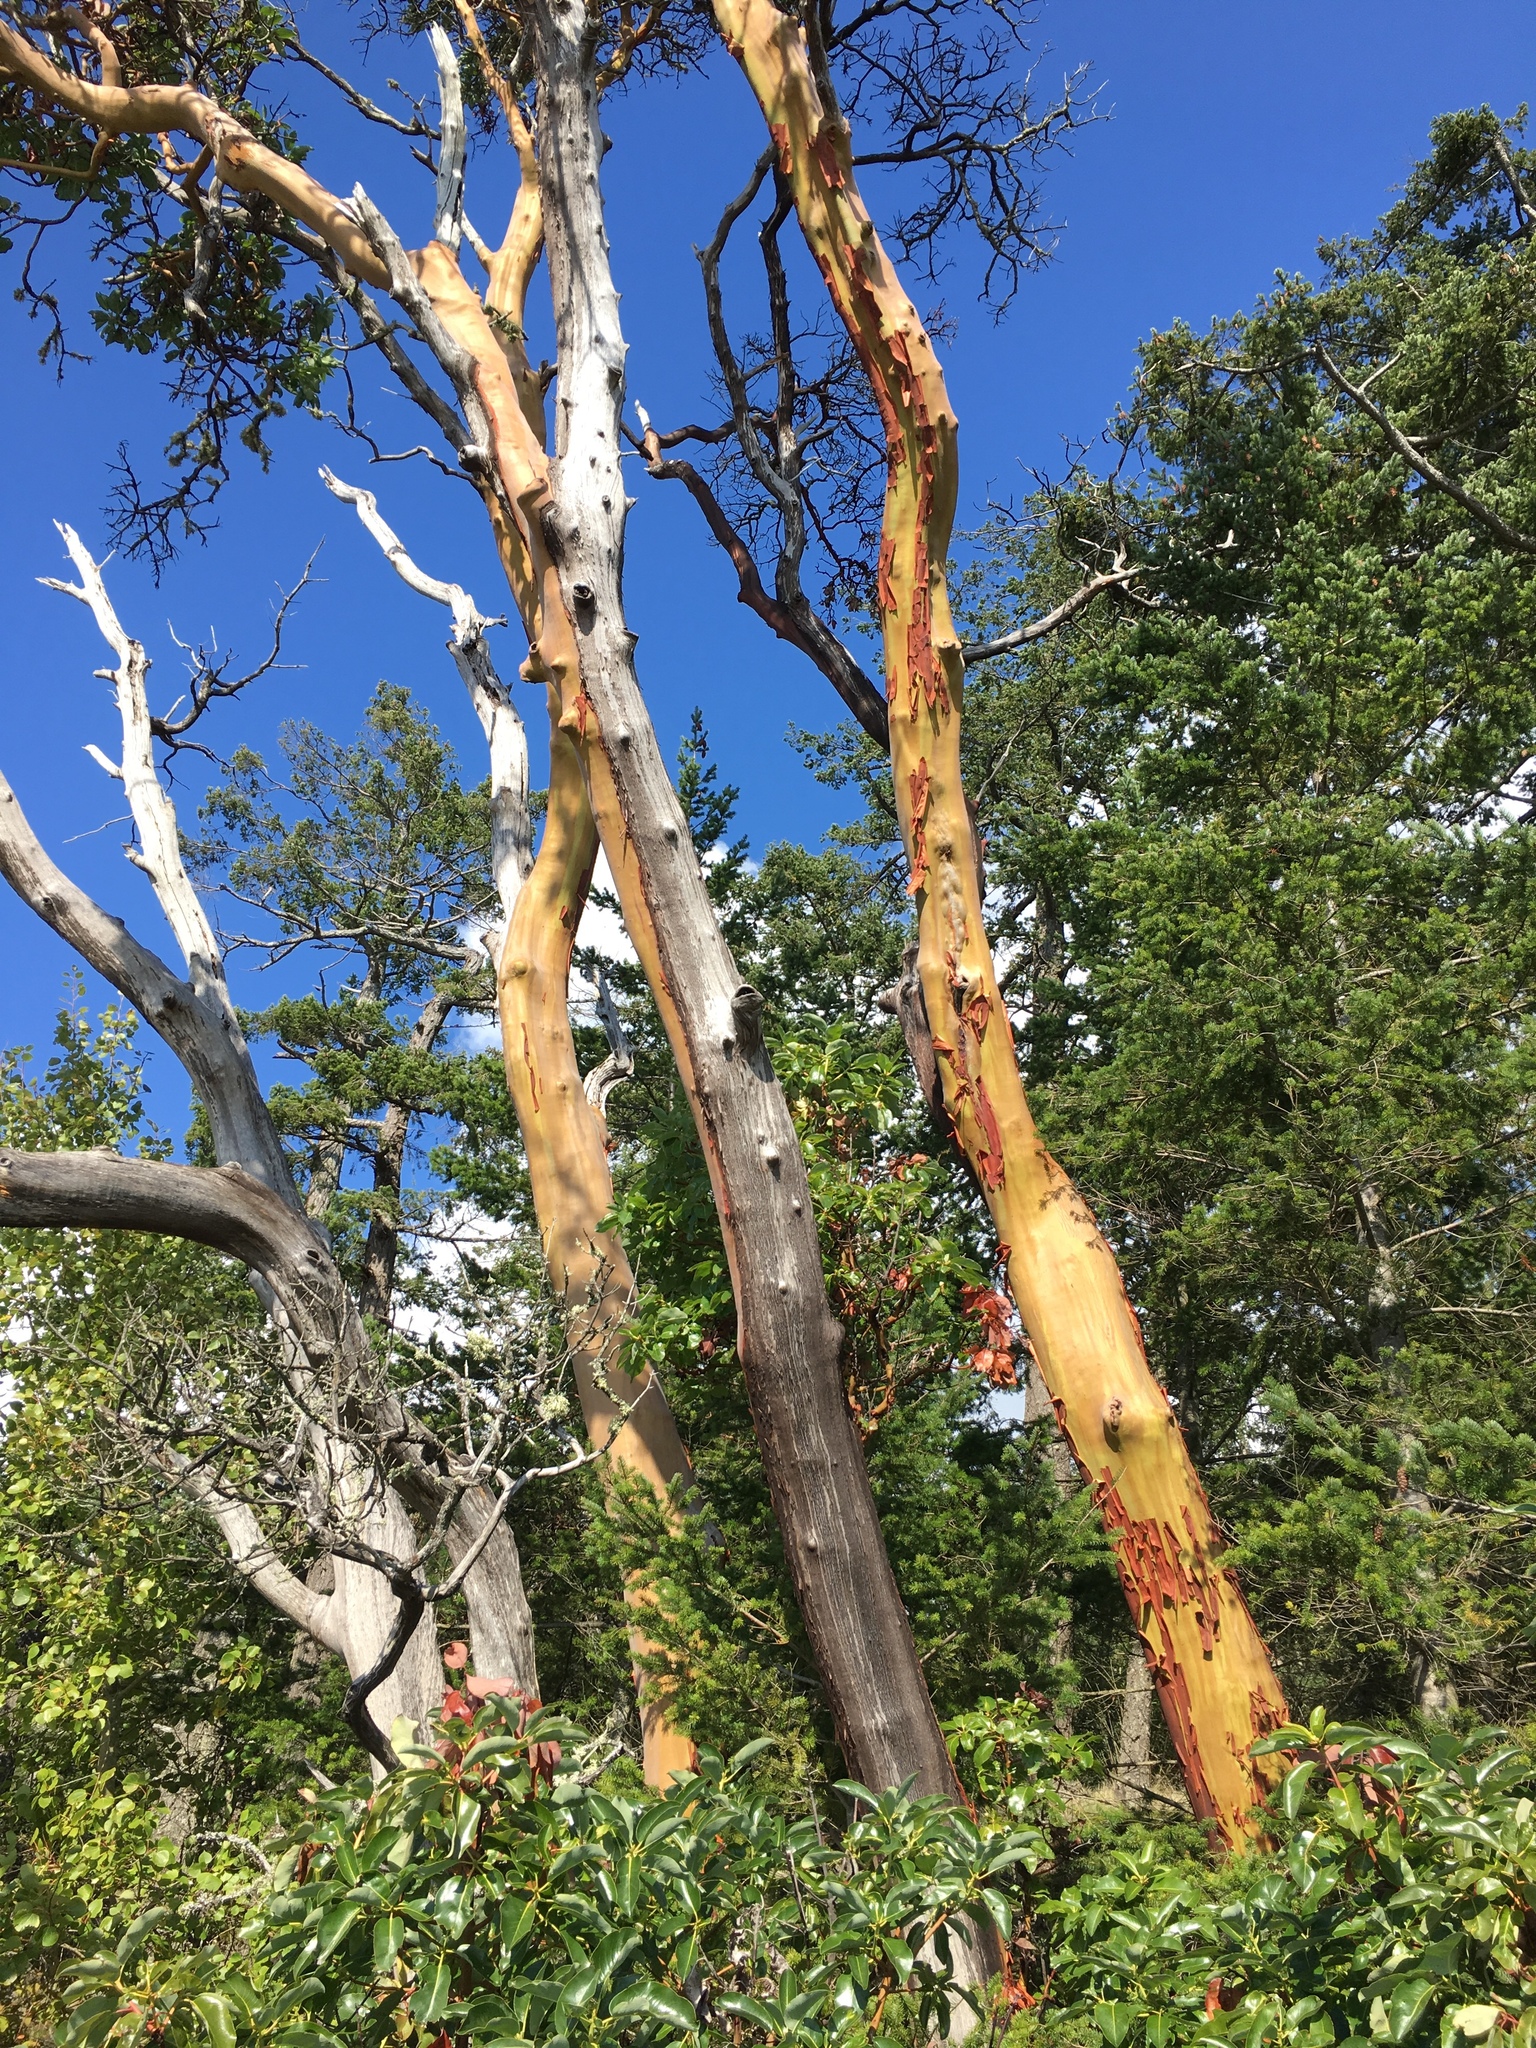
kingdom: Plantae
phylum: Tracheophyta
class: Magnoliopsida
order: Ericales
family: Ericaceae
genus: Arbutus
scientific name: Arbutus menziesii
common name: Pacific madrone
